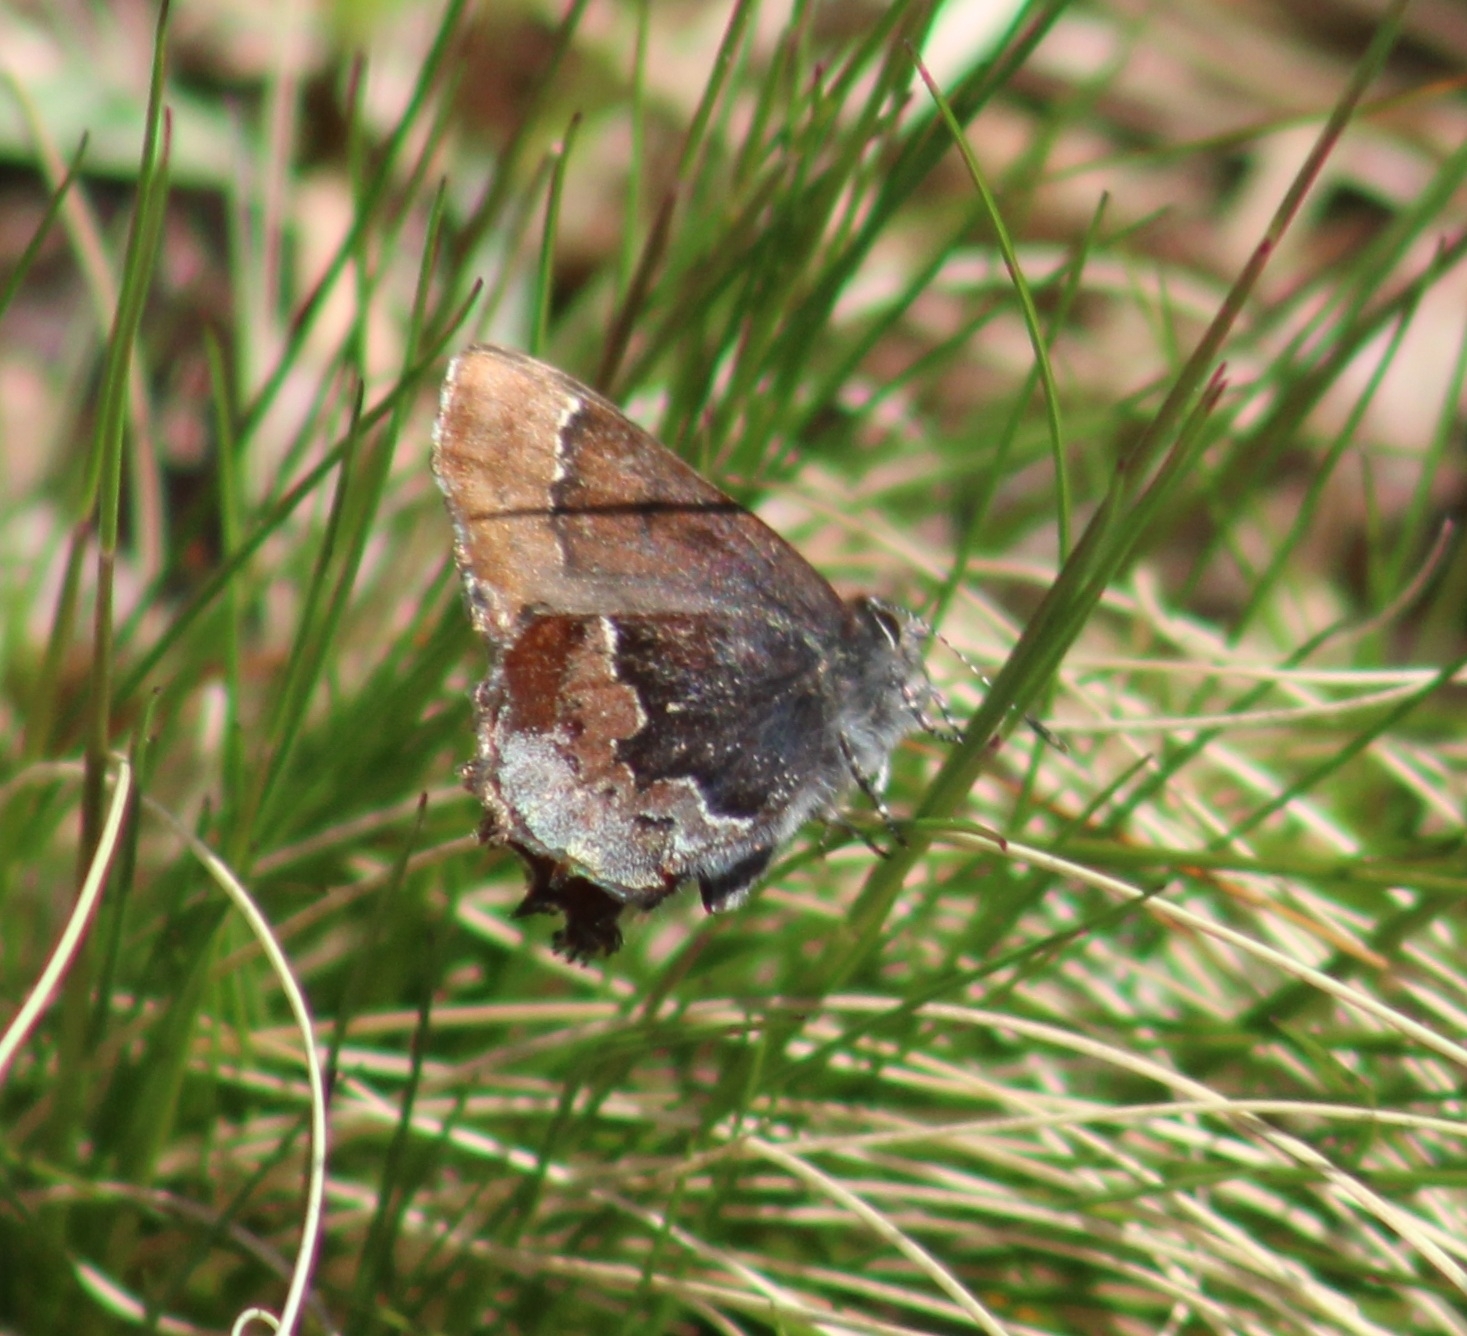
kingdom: Animalia
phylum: Arthropoda
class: Insecta
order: Lepidoptera
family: Lycaenidae
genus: Incisalia
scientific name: Incisalia henrici
